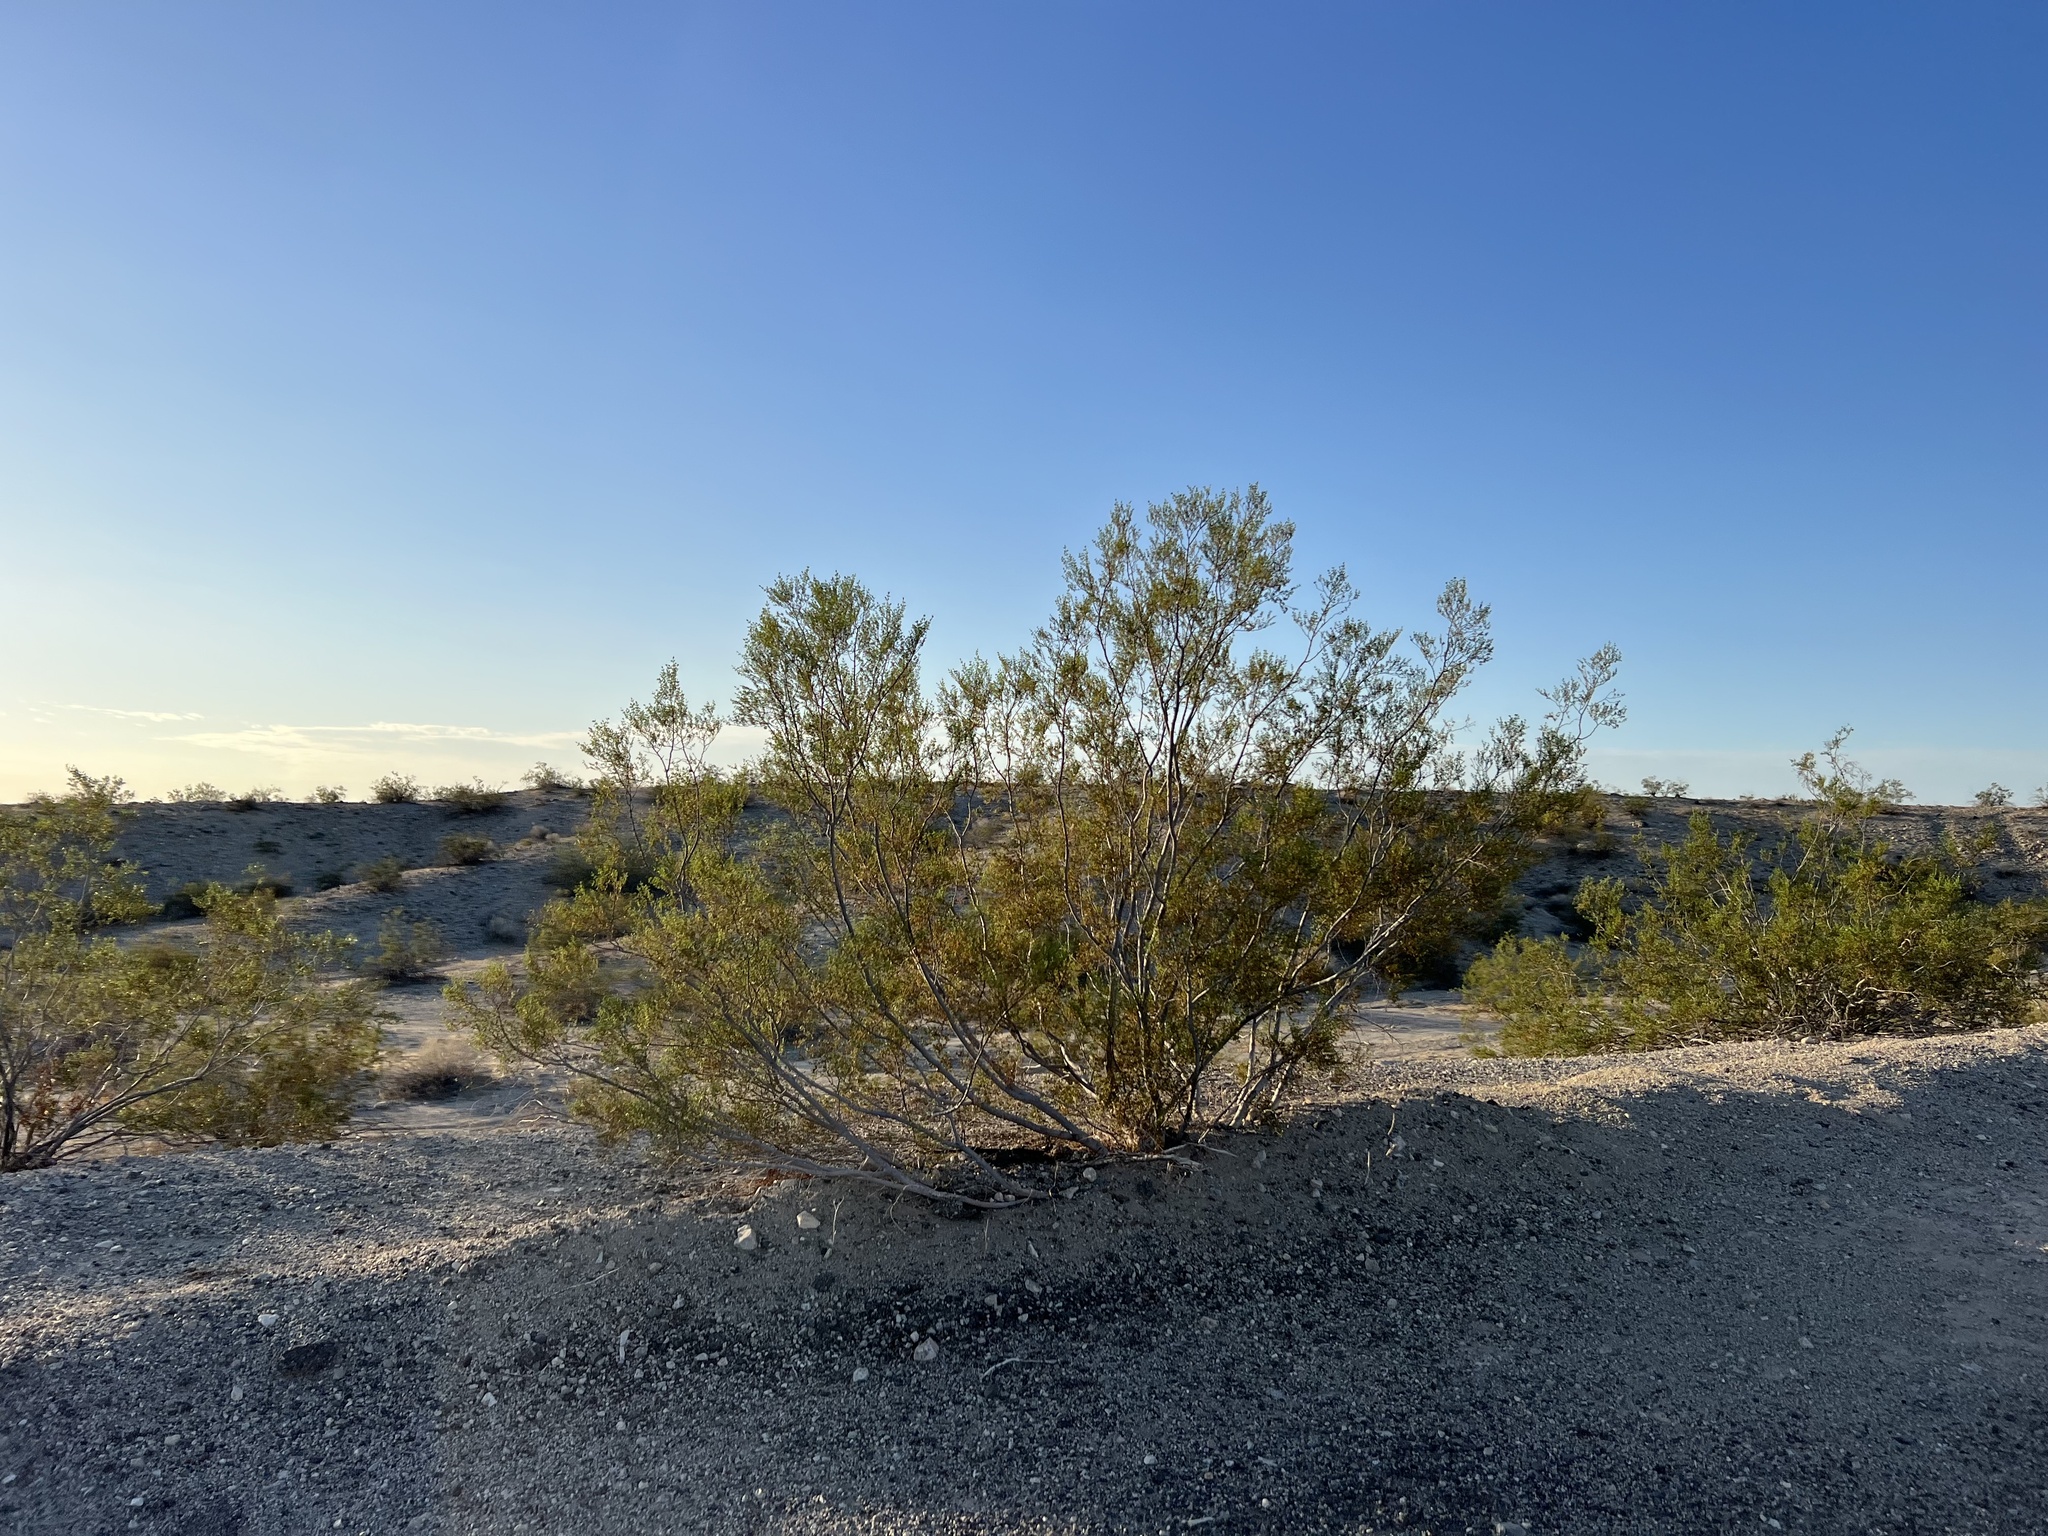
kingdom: Plantae
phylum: Tracheophyta
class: Magnoliopsida
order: Zygophyllales
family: Zygophyllaceae
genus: Larrea
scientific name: Larrea tridentata
